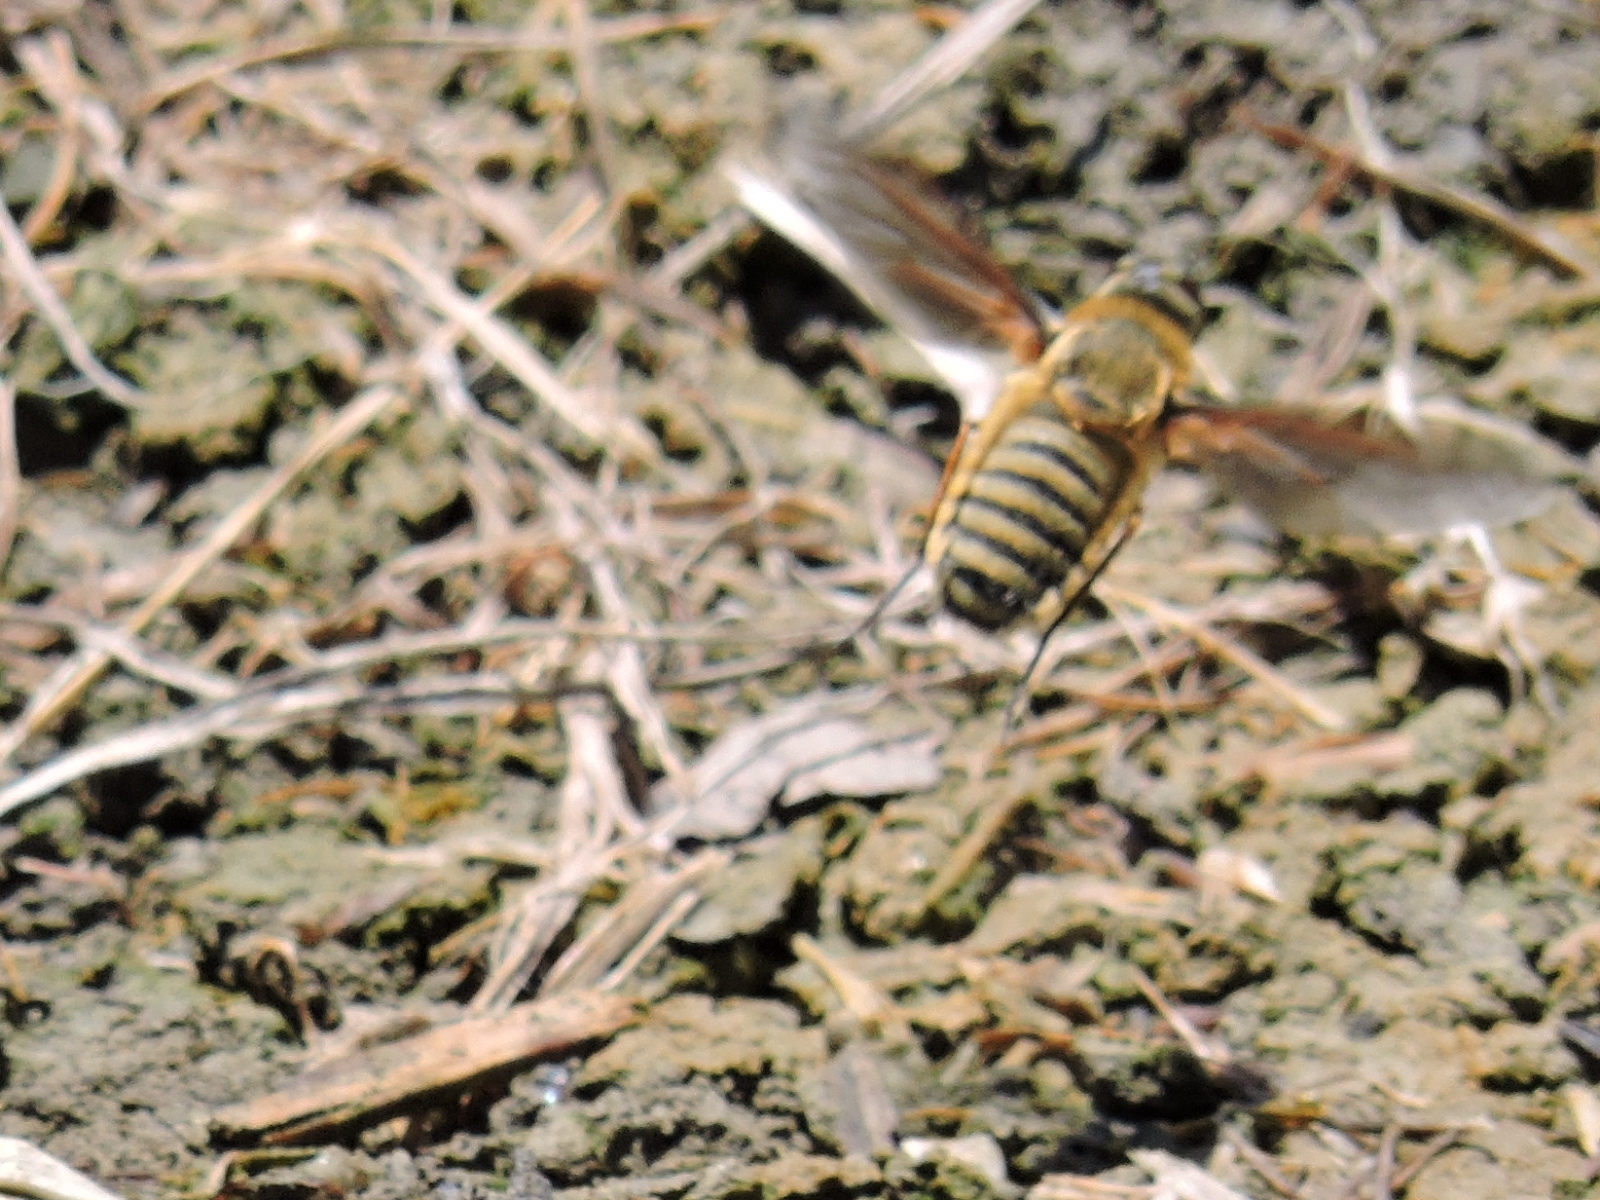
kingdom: Animalia
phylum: Arthropoda
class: Insecta
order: Diptera
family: Bombyliidae
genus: Poecilanthrax
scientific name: Poecilanthrax lucifer
